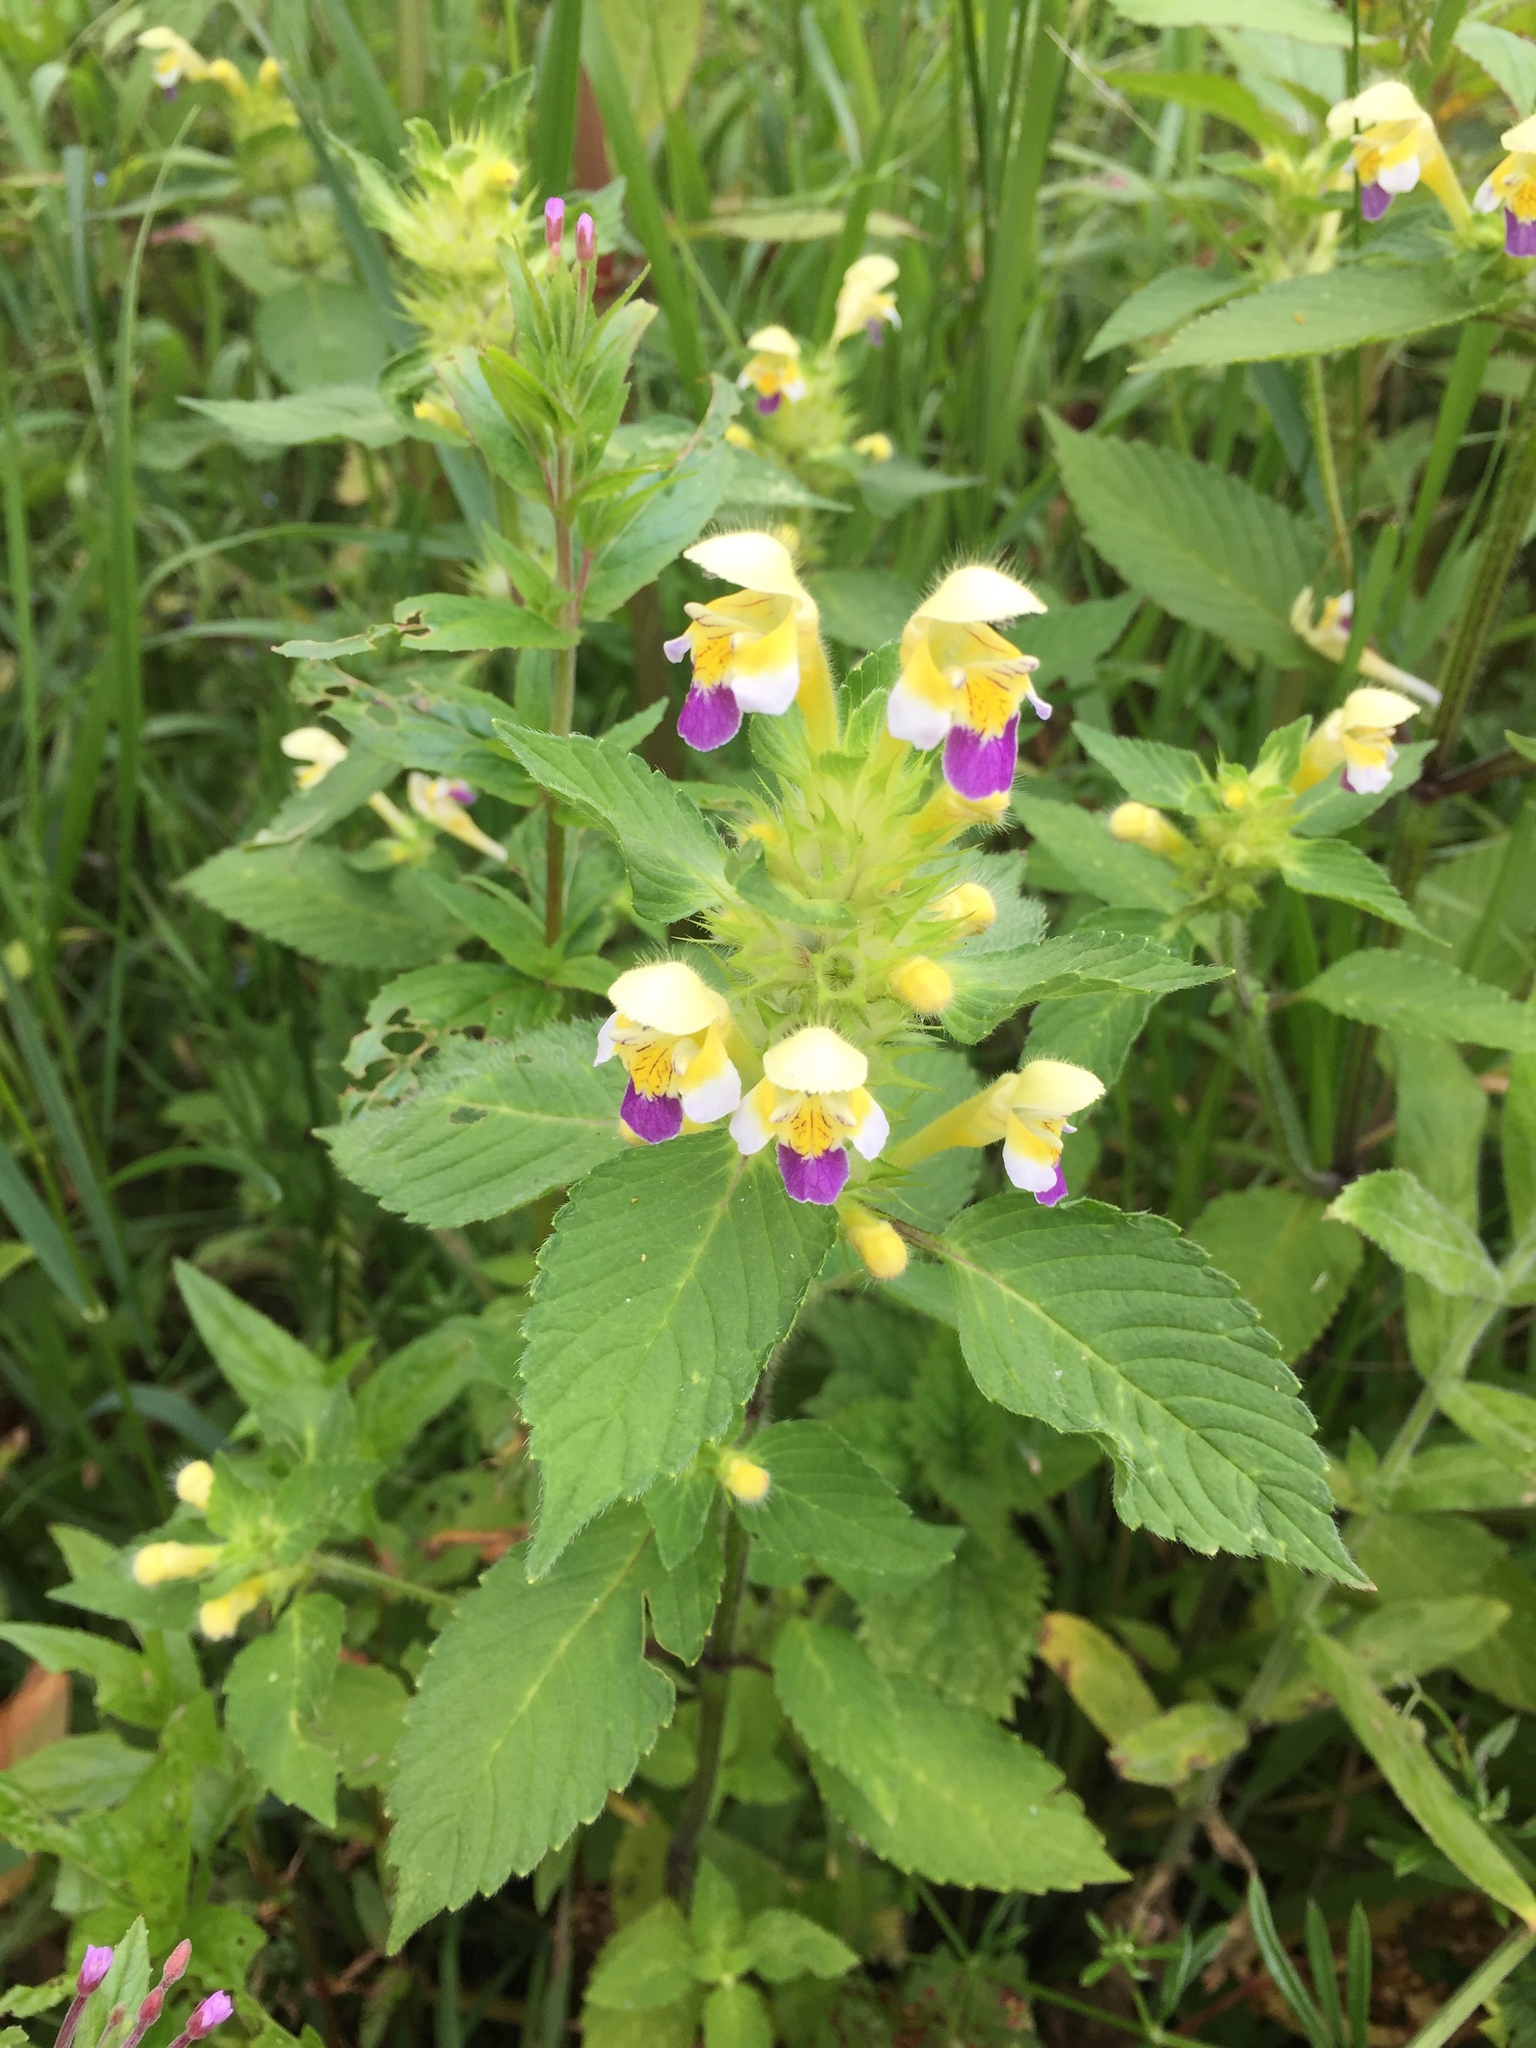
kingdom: Plantae
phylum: Tracheophyta
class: Magnoliopsida
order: Lamiales
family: Lamiaceae
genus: Galeopsis
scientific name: Galeopsis speciosa
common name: Large-flowered hemp-nettle
